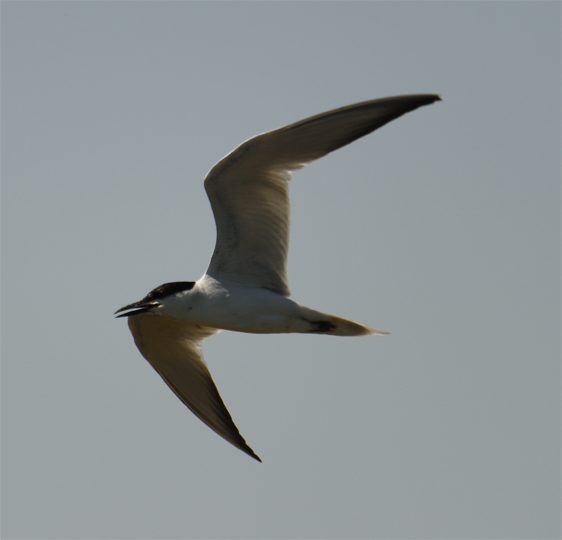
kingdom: Animalia
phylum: Chordata
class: Aves
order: Charadriiformes
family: Laridae
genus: Gelochelidon
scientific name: Gelochelidon nilotica
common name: Gull-billed tern
